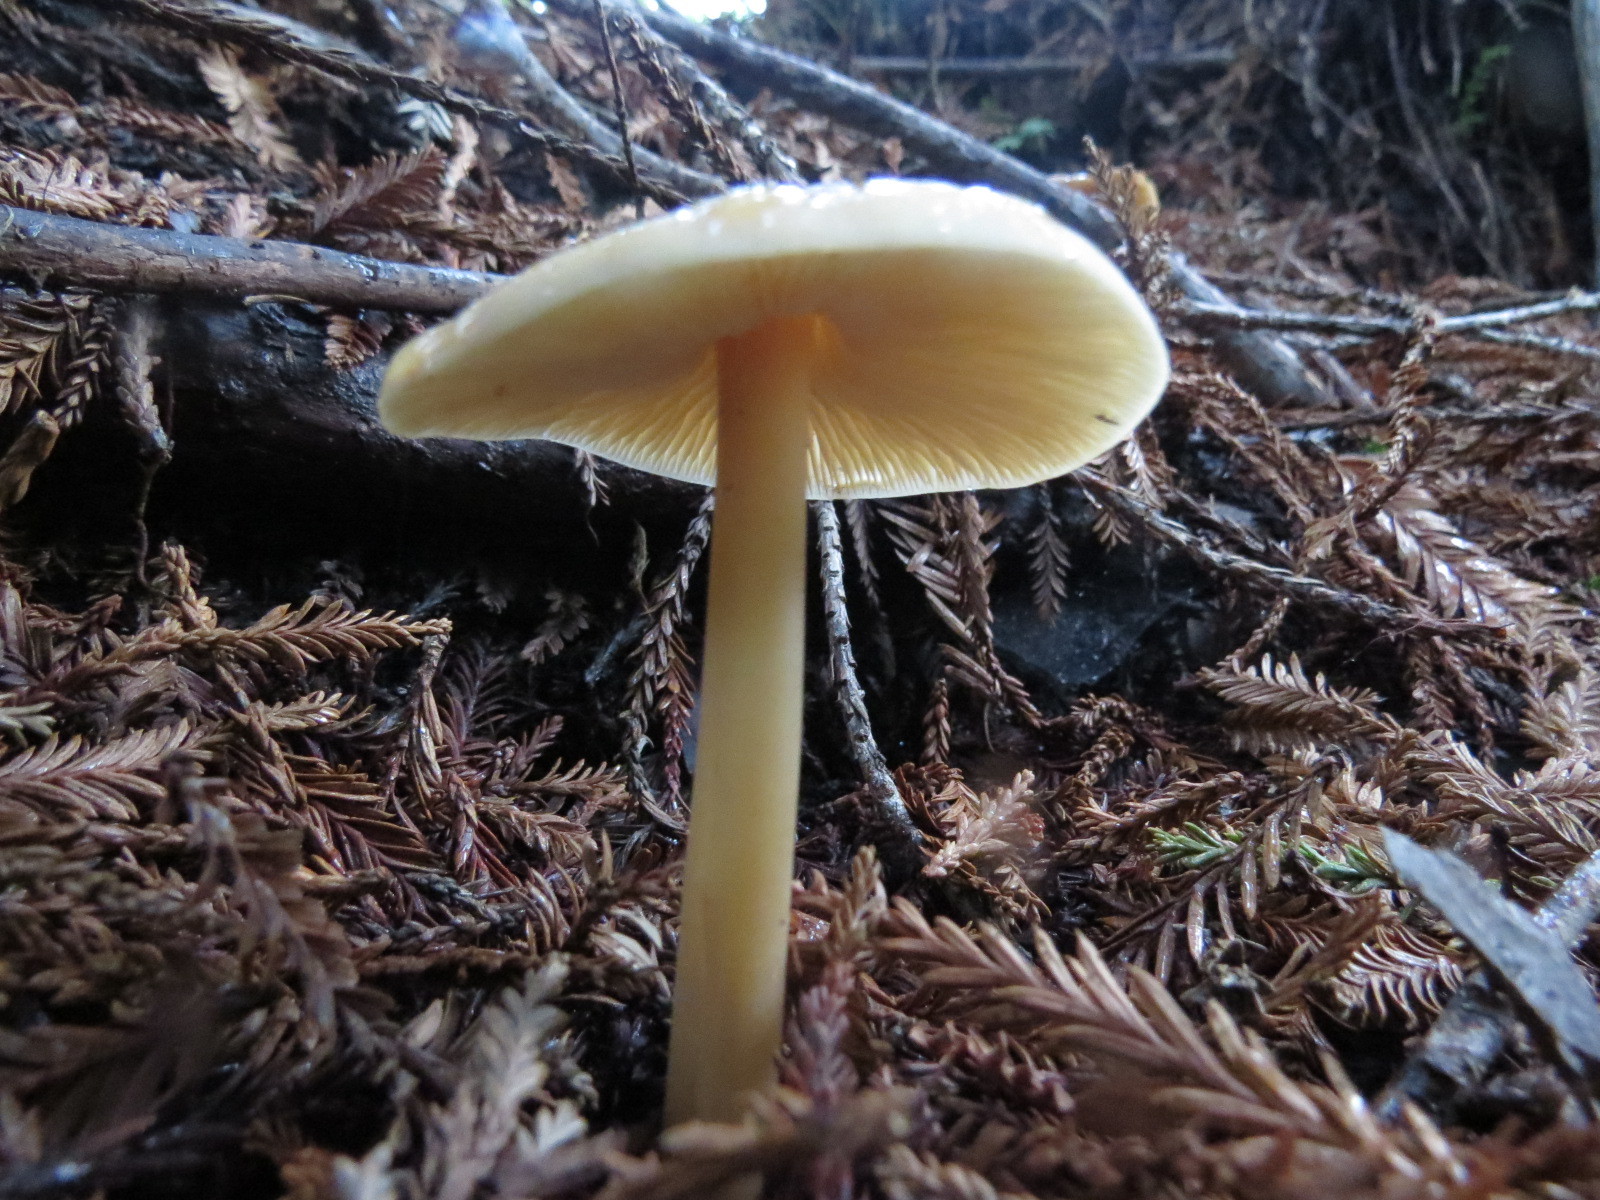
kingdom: Fungi
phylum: Basidiomycota
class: Agaricomycetes
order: Agaricales
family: Tricholomataceae
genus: Caulorhiza
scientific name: Caulorhiza umbonata
